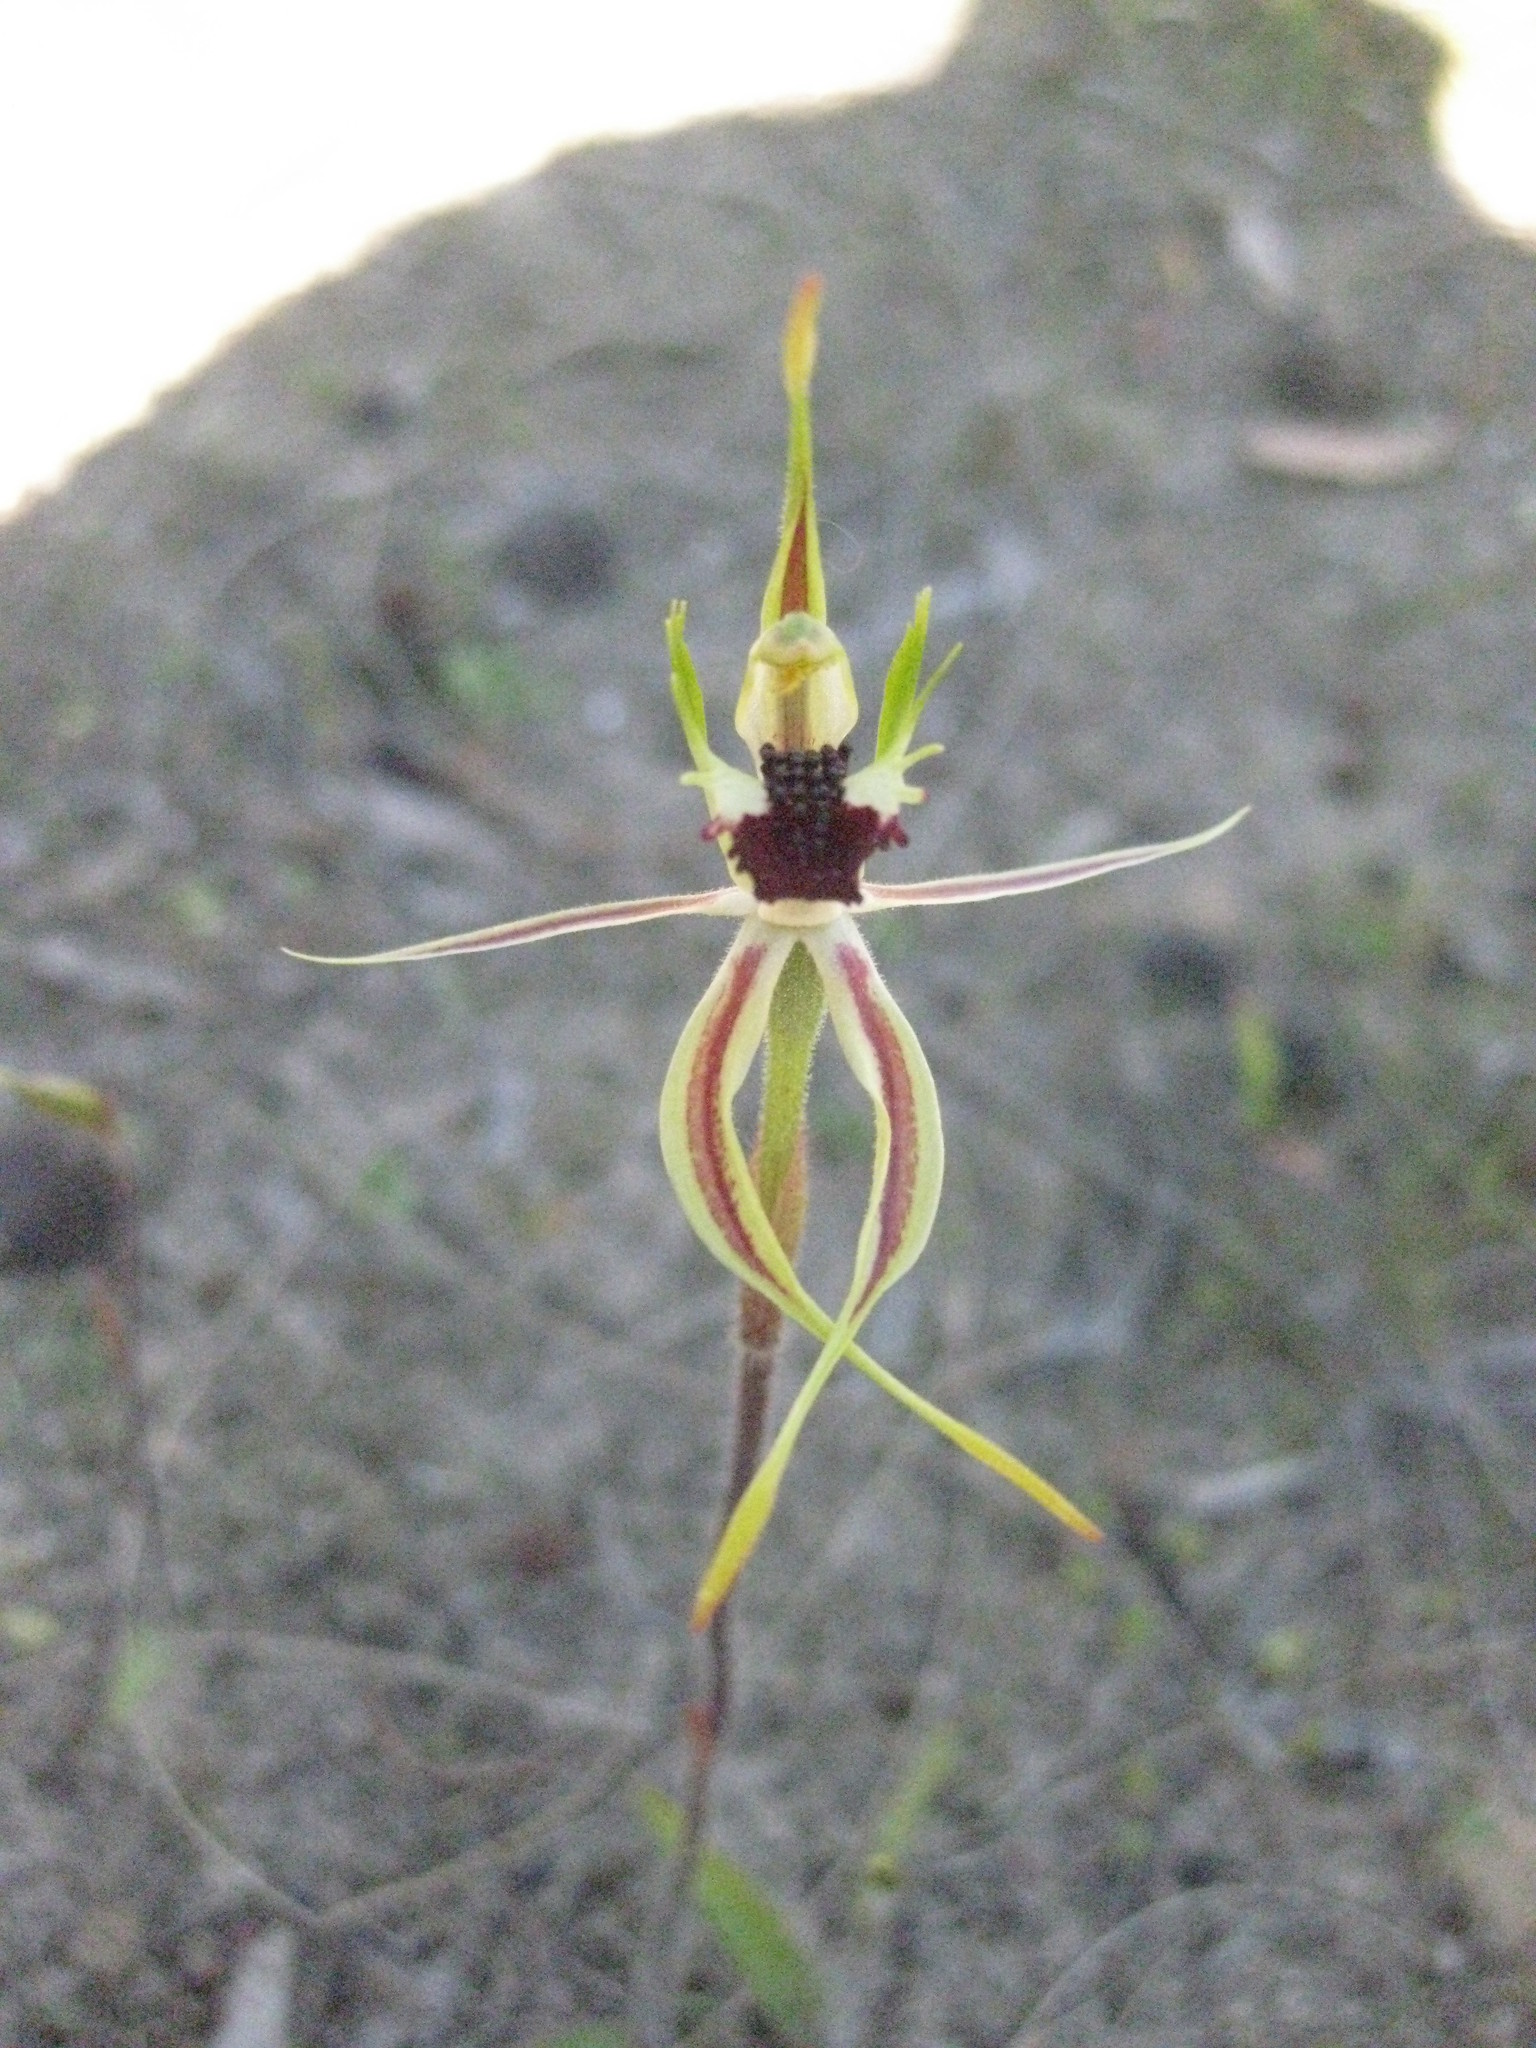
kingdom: Plantae
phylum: Tracheophyta
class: Liliopsida
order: Asparagales
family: Orchidaceae
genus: Caladenia
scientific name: Caladenia verrucosa
